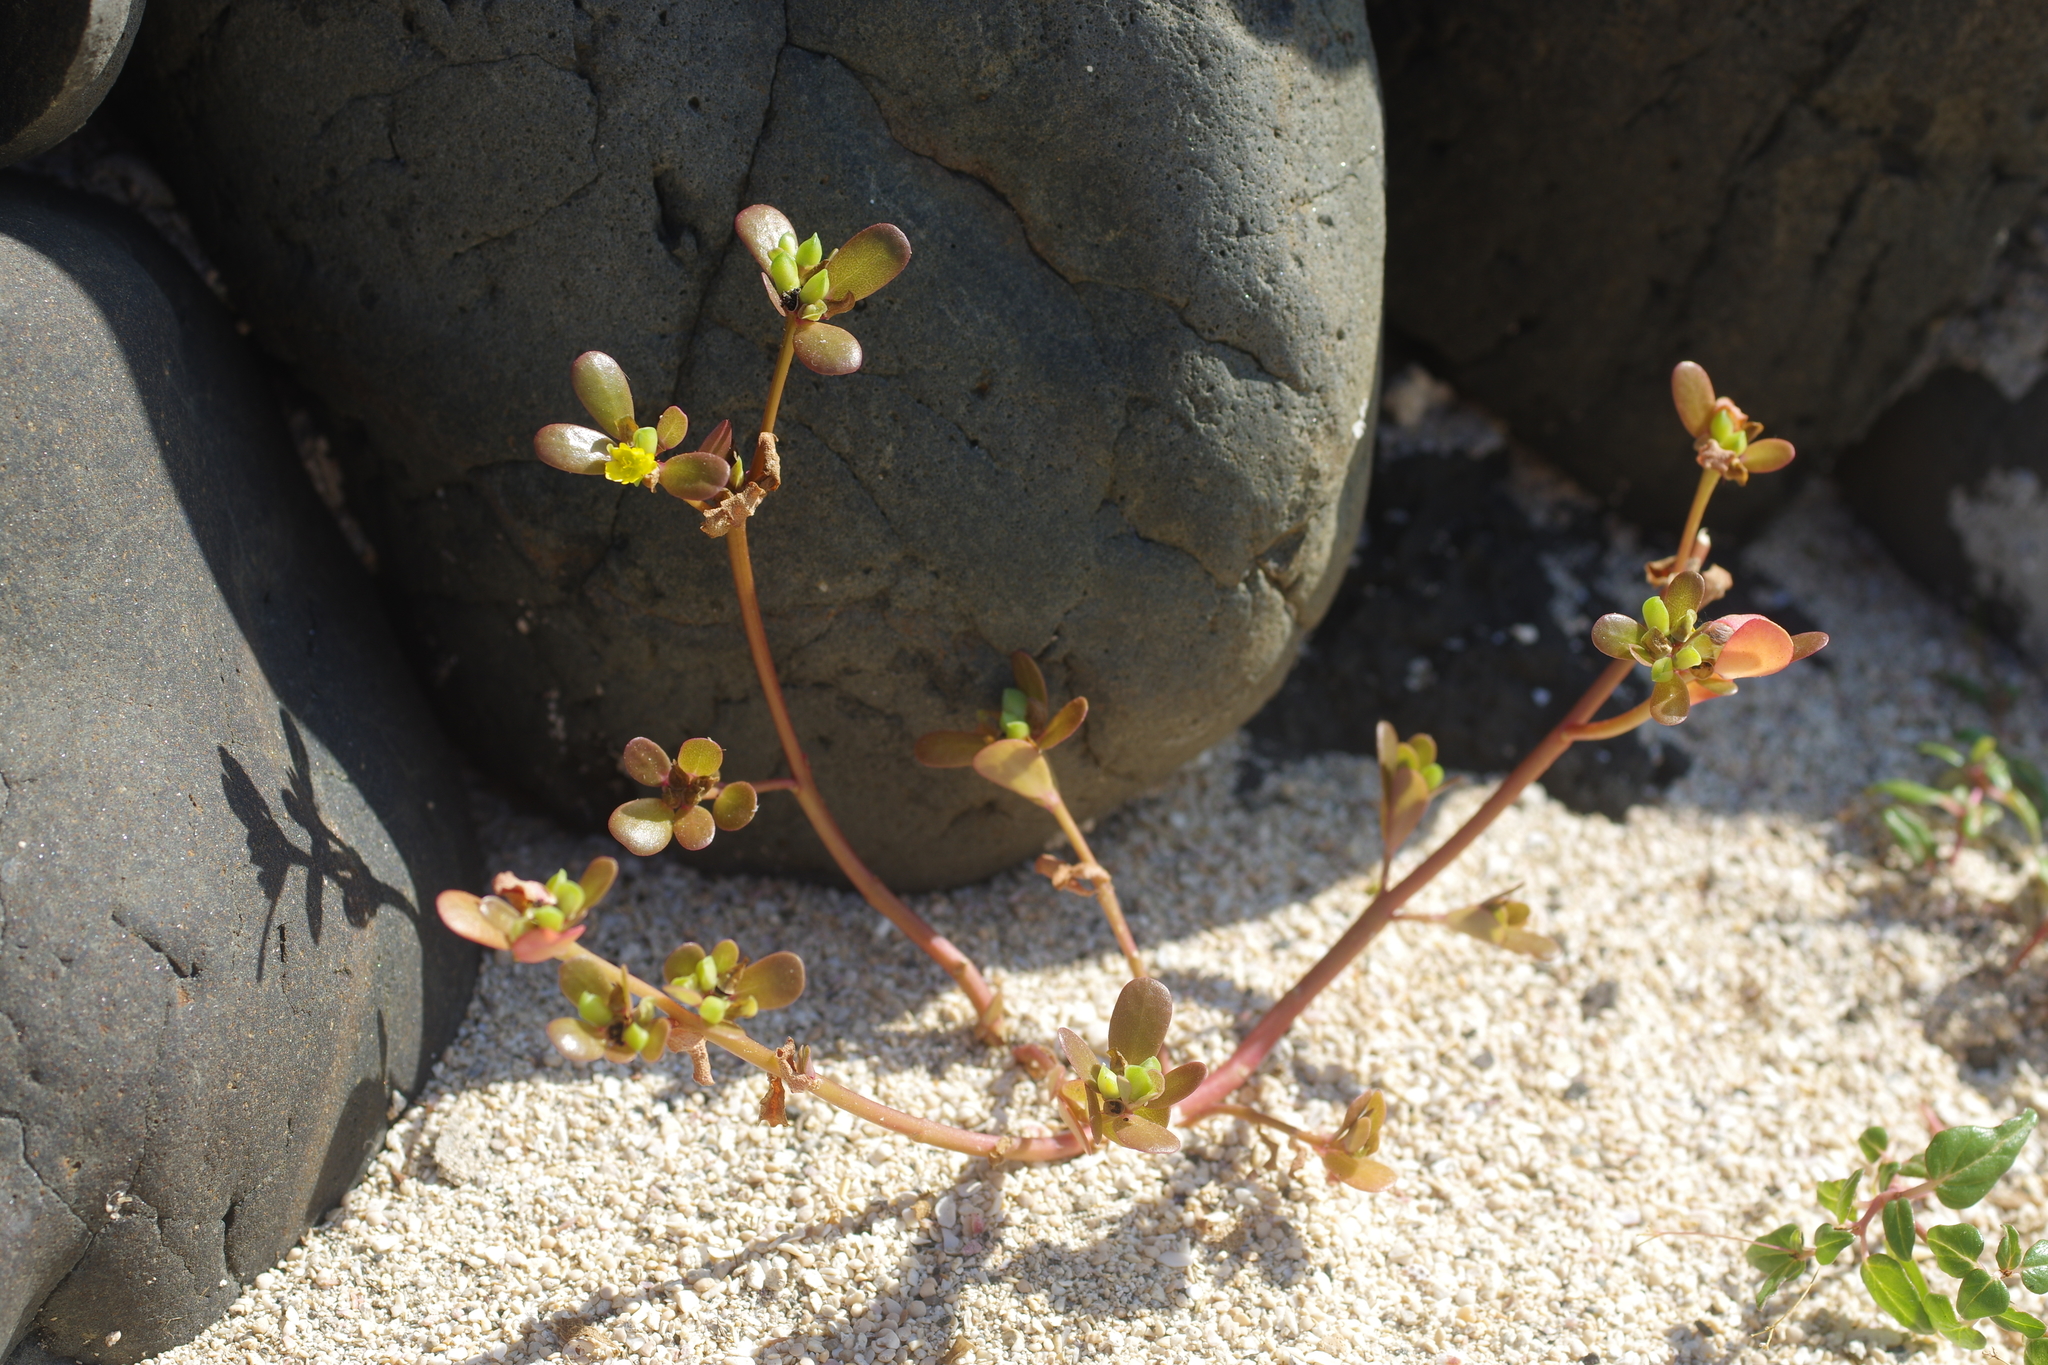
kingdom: Plantae
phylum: Tracheophyta
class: Magnoliopsida
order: Caryophyllales
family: Portulacaceae
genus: Portulaca
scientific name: Portulaca oleracea
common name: Common purslane
